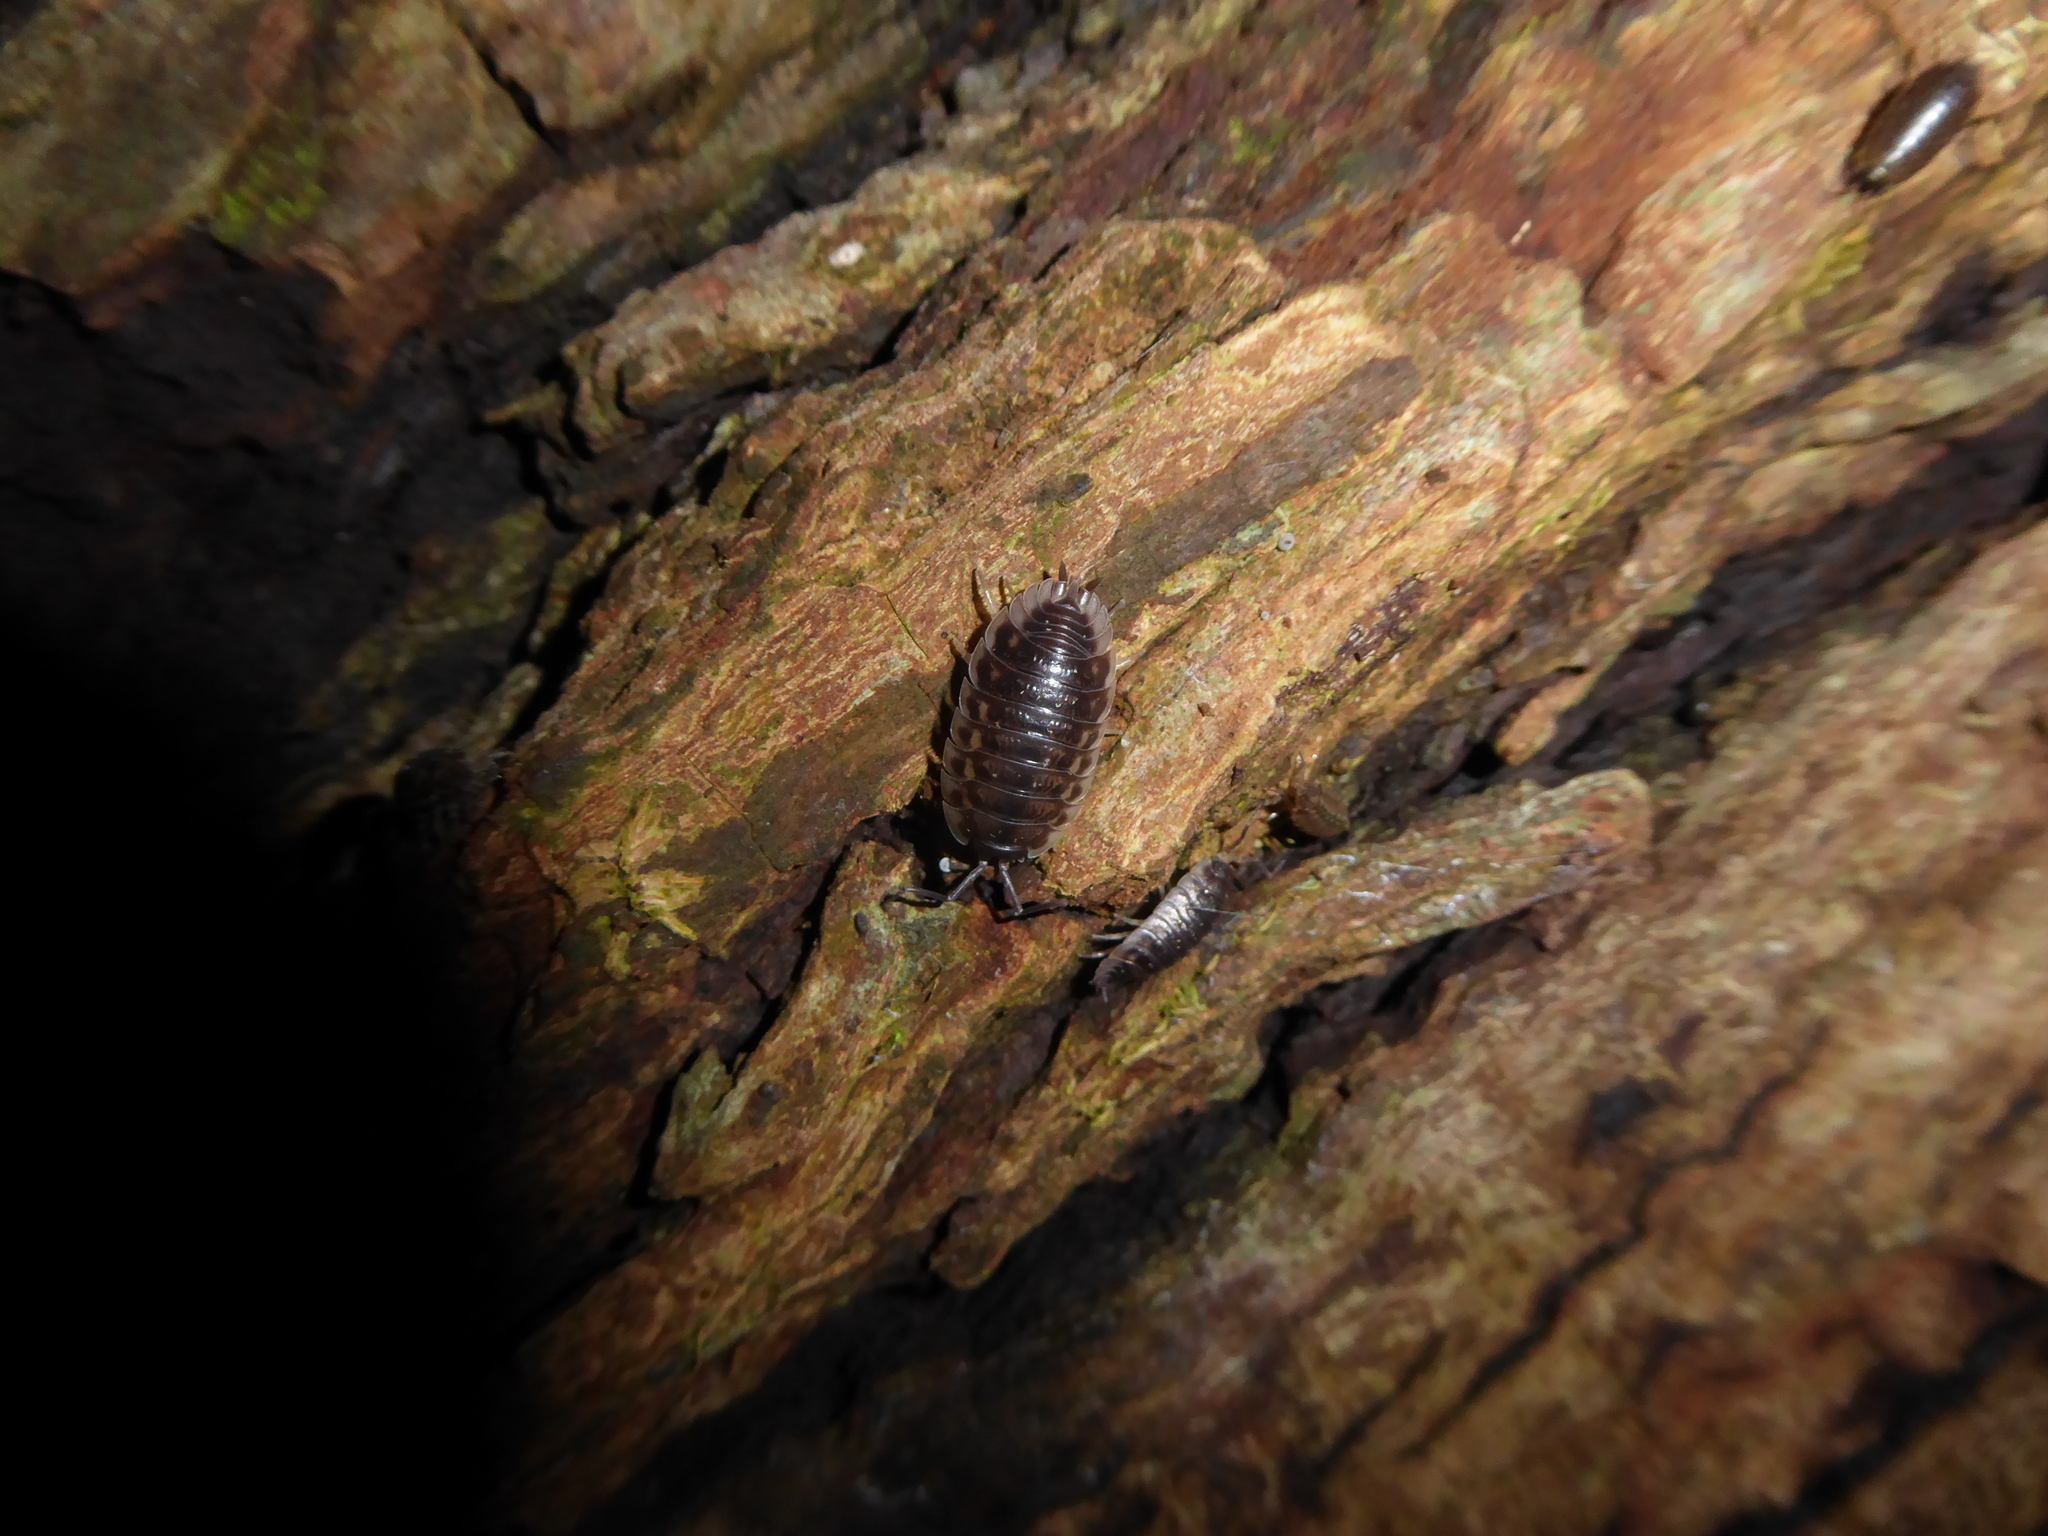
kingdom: Animalia
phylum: Arthropoda
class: Malacostraca
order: Isopoda
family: Oniscidae
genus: Oniscus
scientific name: Oniscus asellus
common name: Common shiny woodlouse
